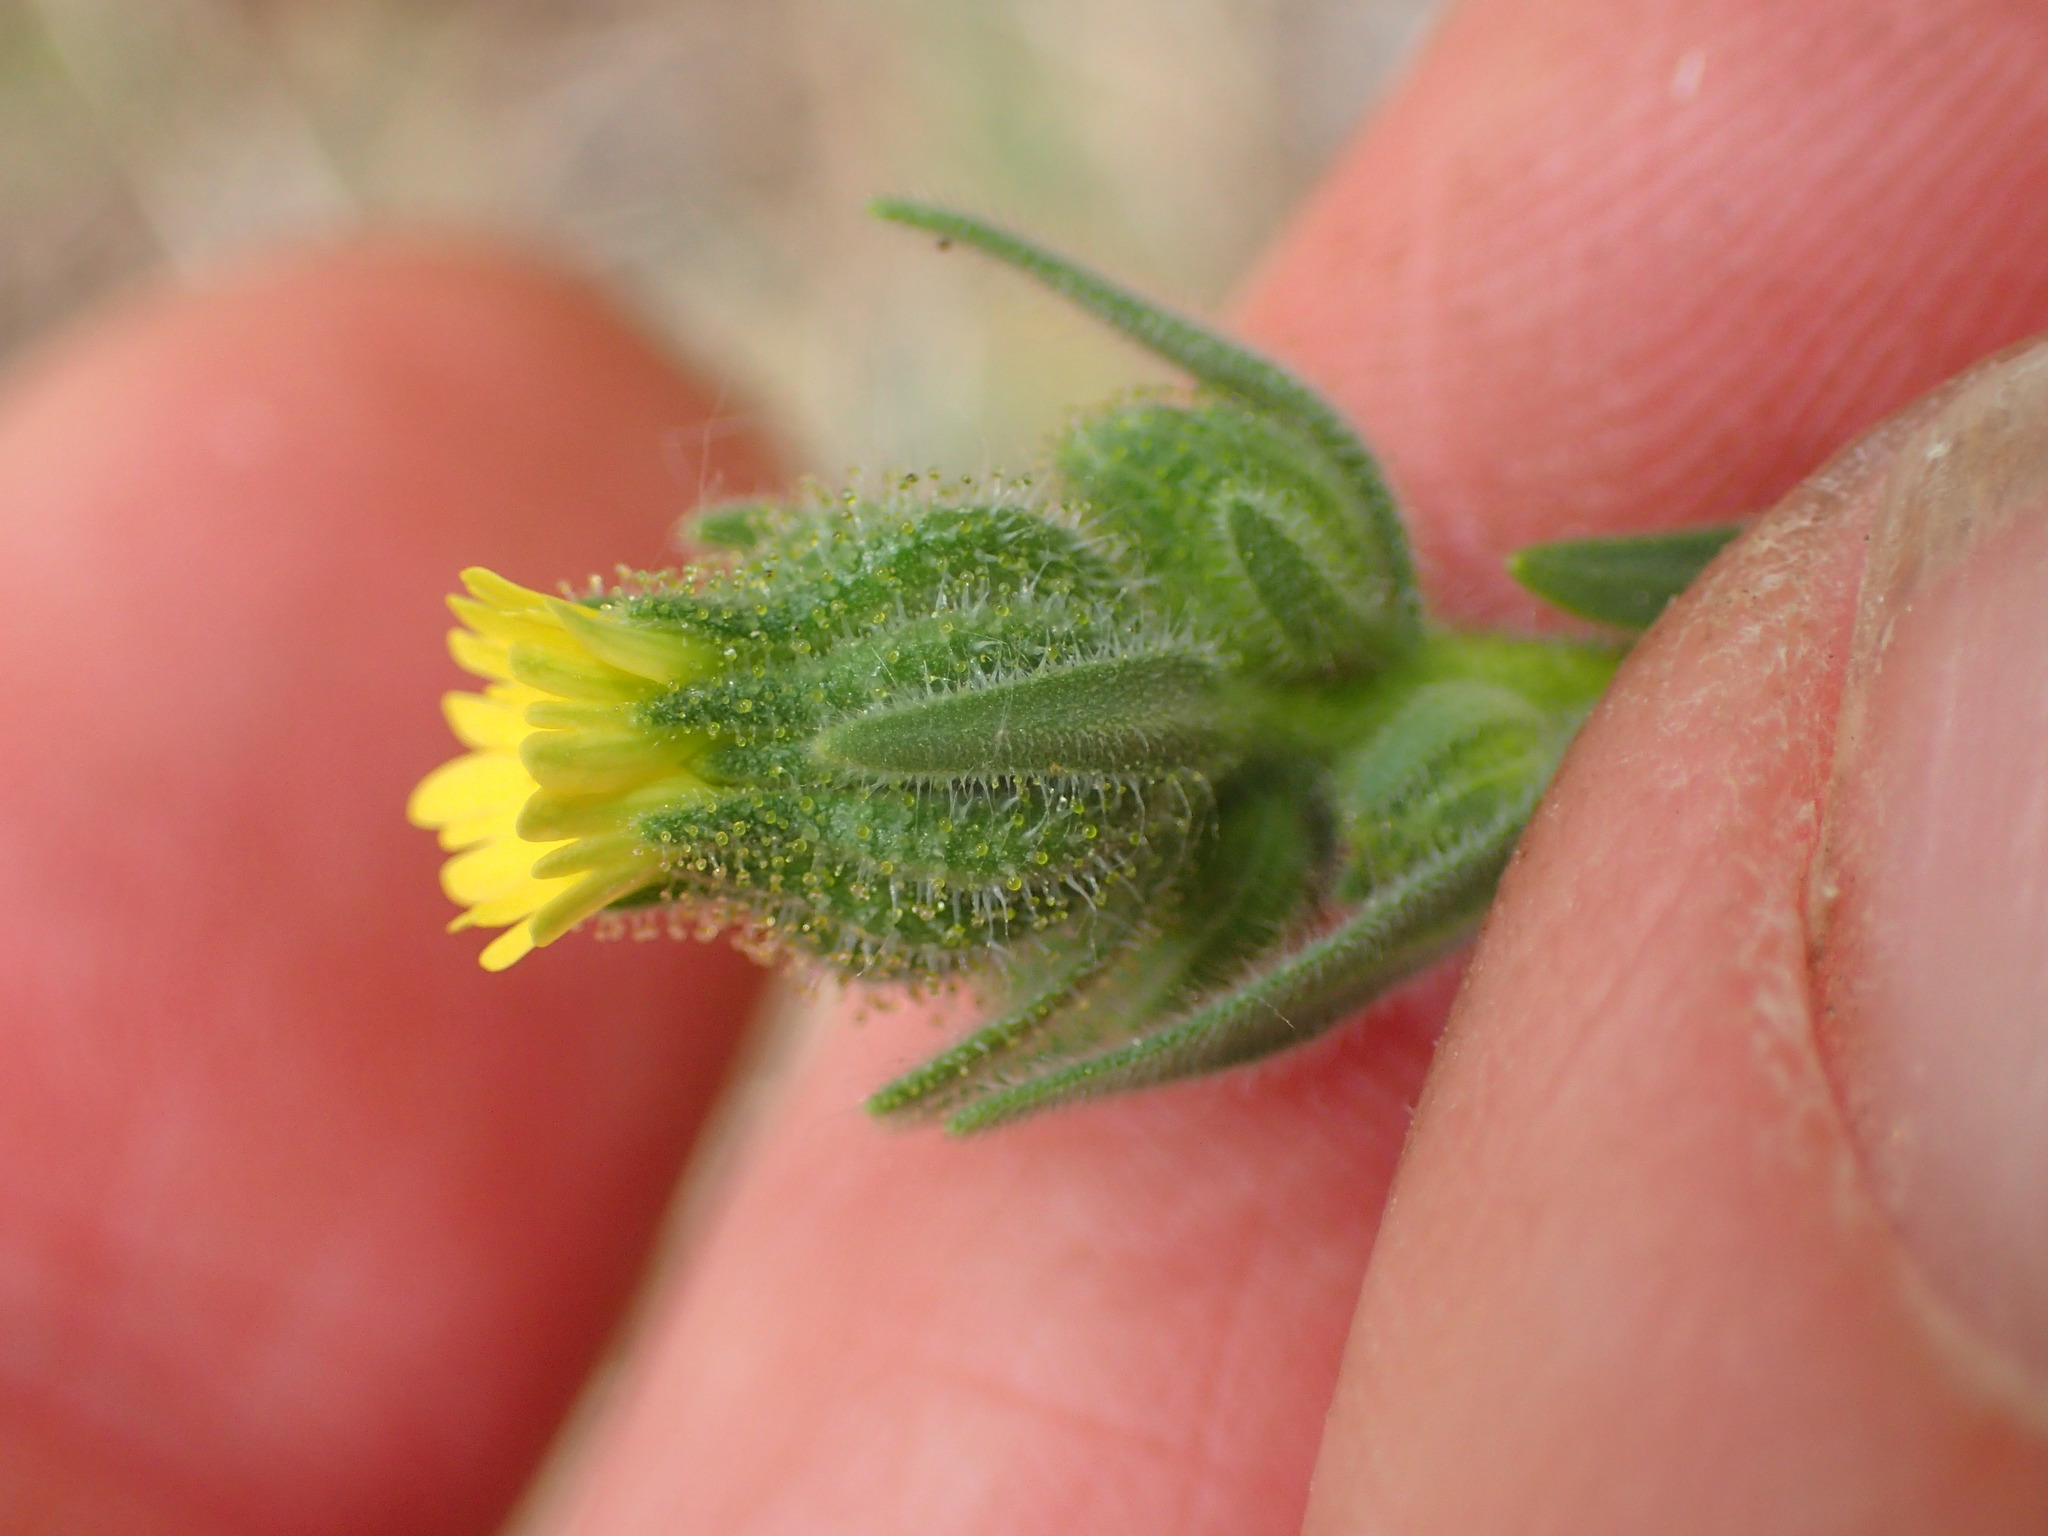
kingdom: Plantae
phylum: Tracheophyta
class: Magnoliopsida
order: Asterales
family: Asteraceae
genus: Madia
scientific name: Madia gracilis
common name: Grassy tarweed
